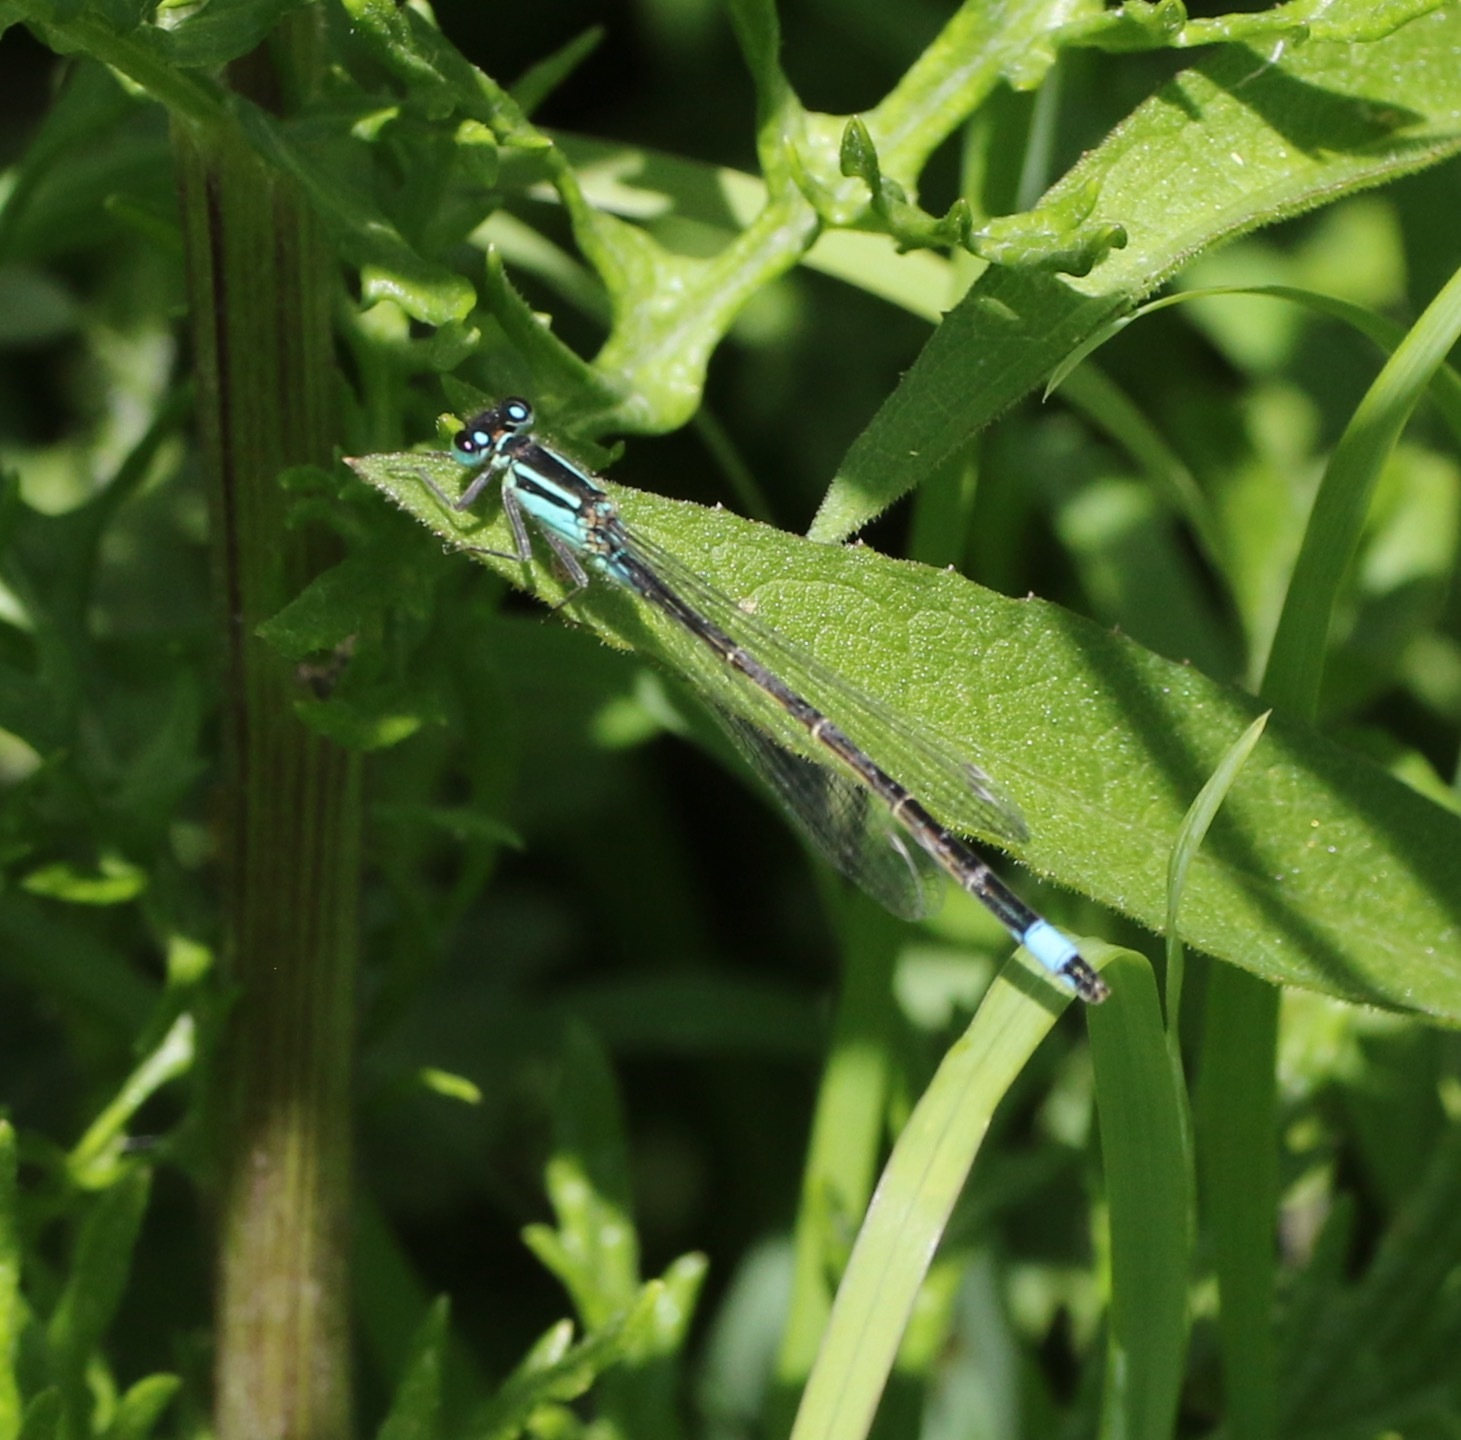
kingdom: Animalia
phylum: Arthropoda
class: Insecta
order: Odonata
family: Coenagrionidae
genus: Ischnura
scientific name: Ischnura elegans
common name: Blue-tailed damselfly
